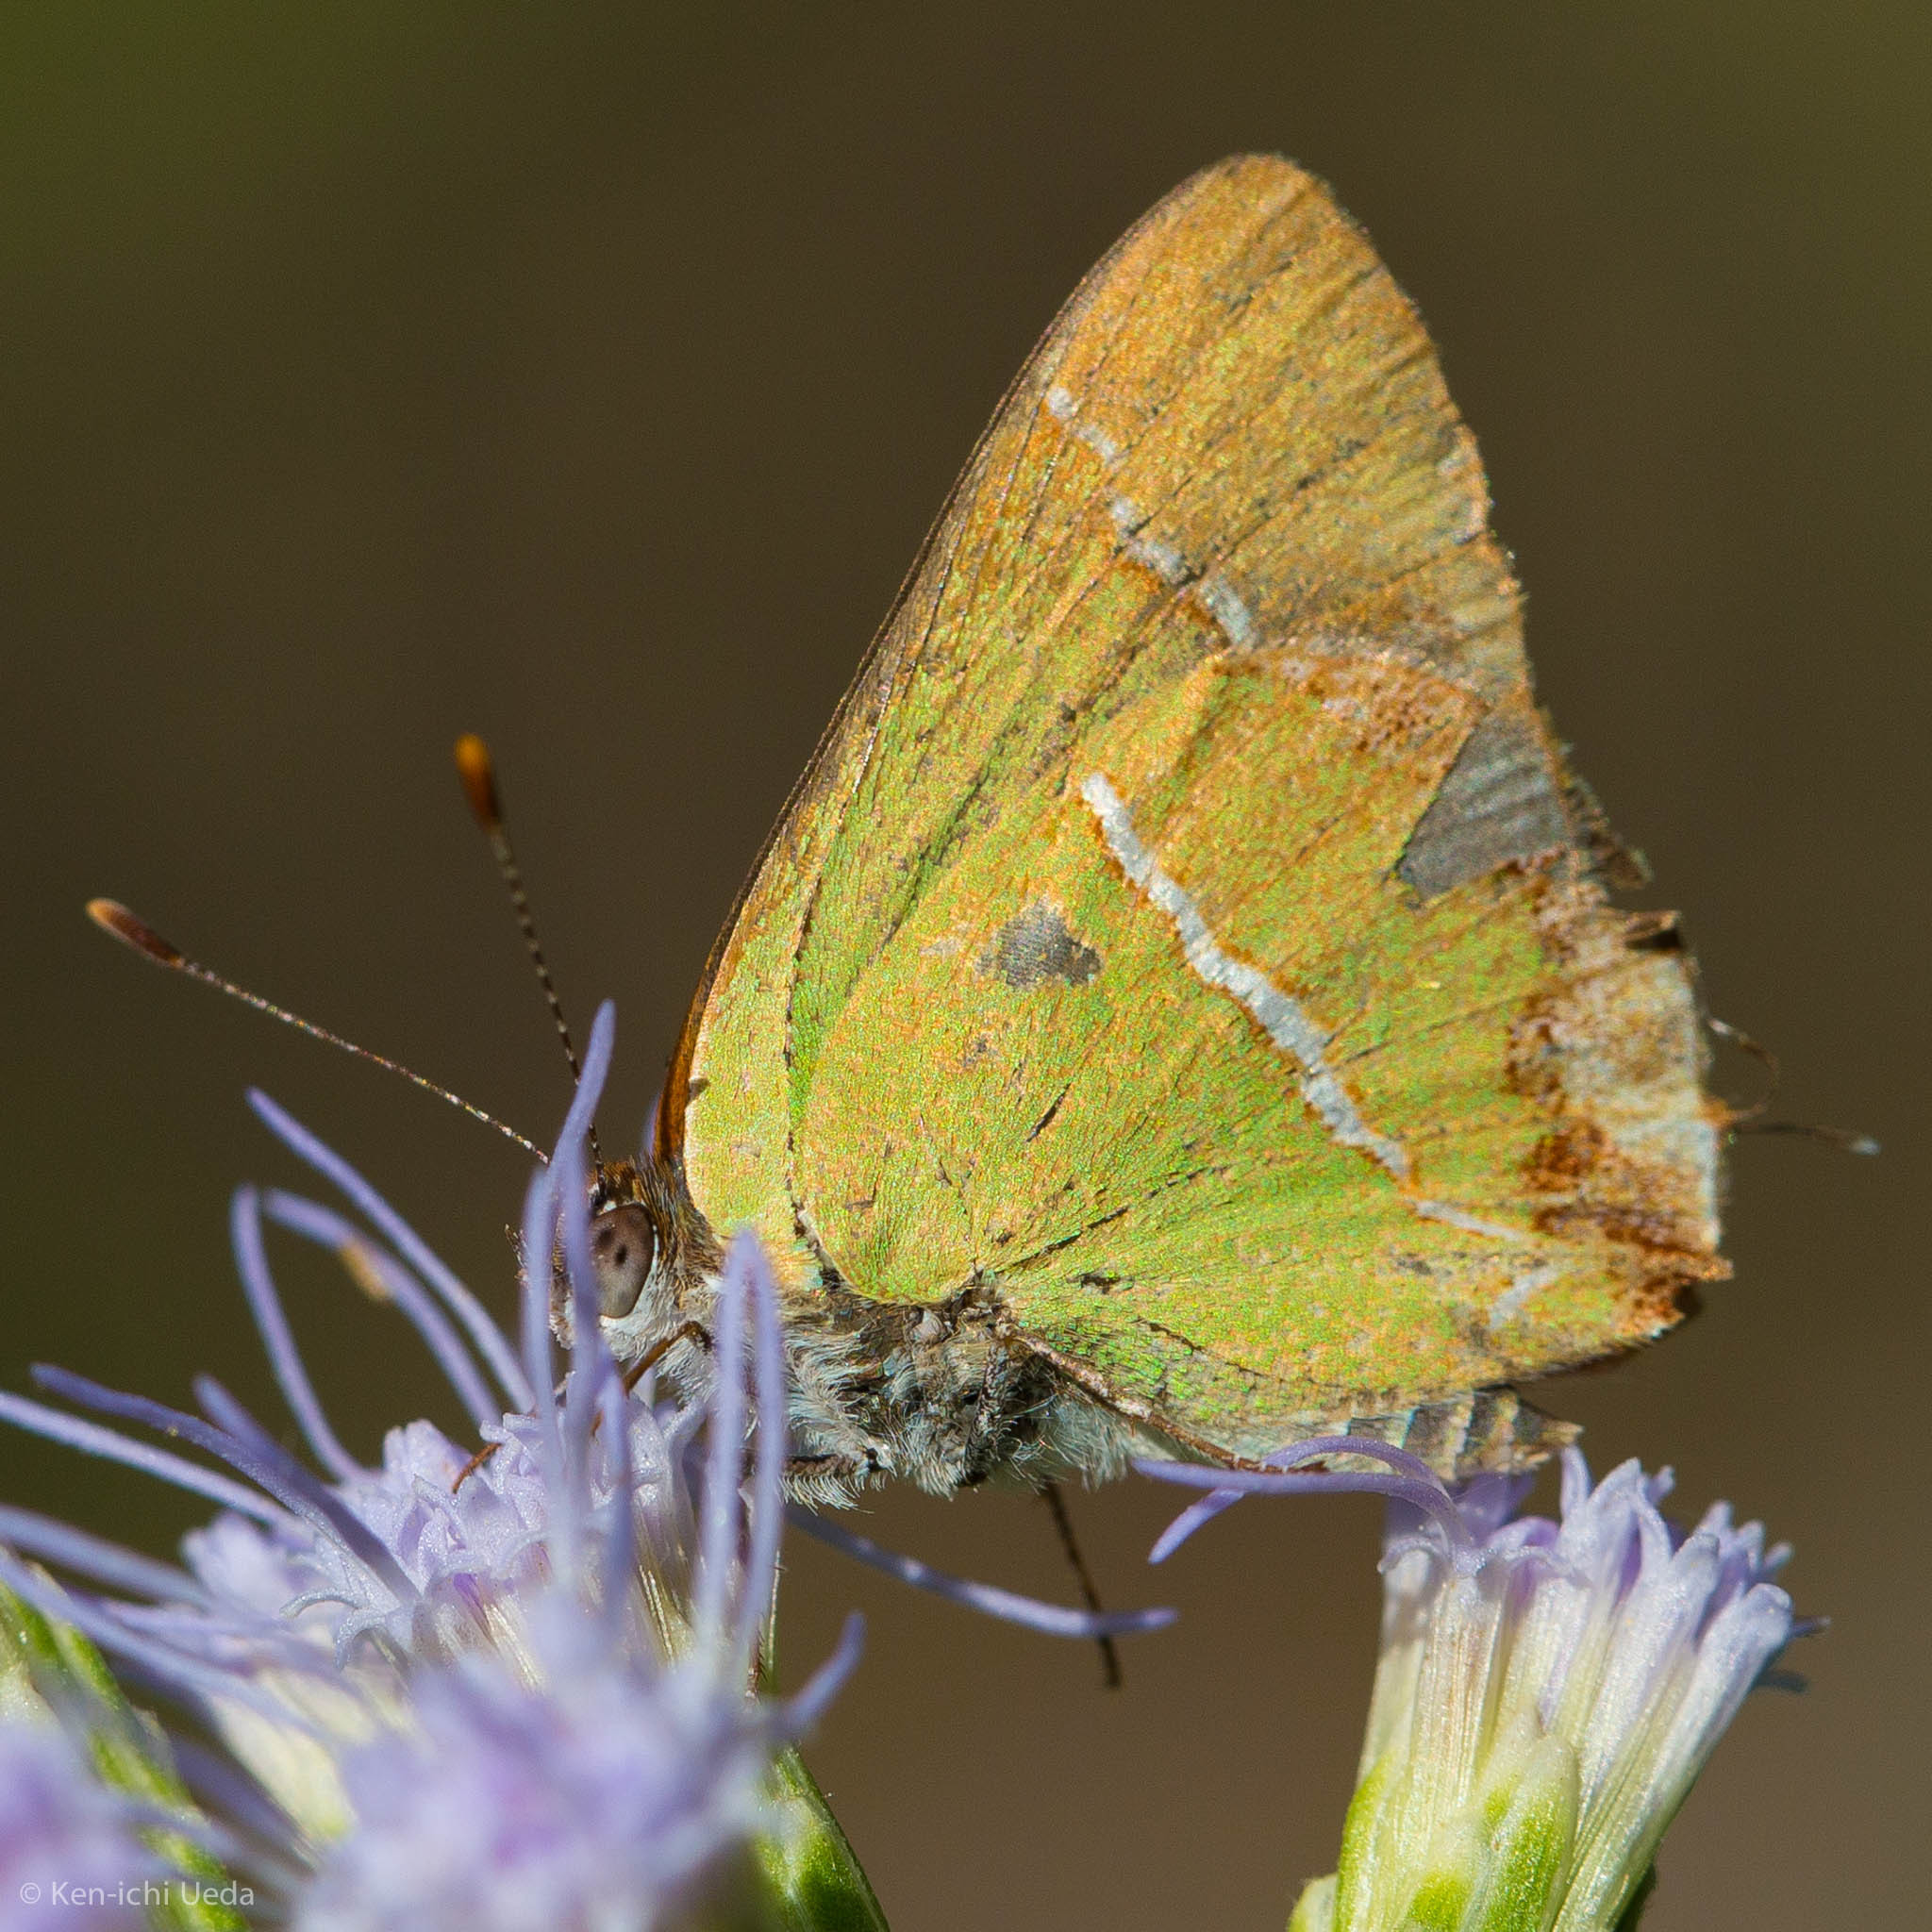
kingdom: Animalia
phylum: Arthropoda
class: Insecta
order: Lepidoptera
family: Lycaenidae
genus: Chlorostrymon
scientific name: Chlorostrymon simaethis
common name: Silver-banded hairstreak
